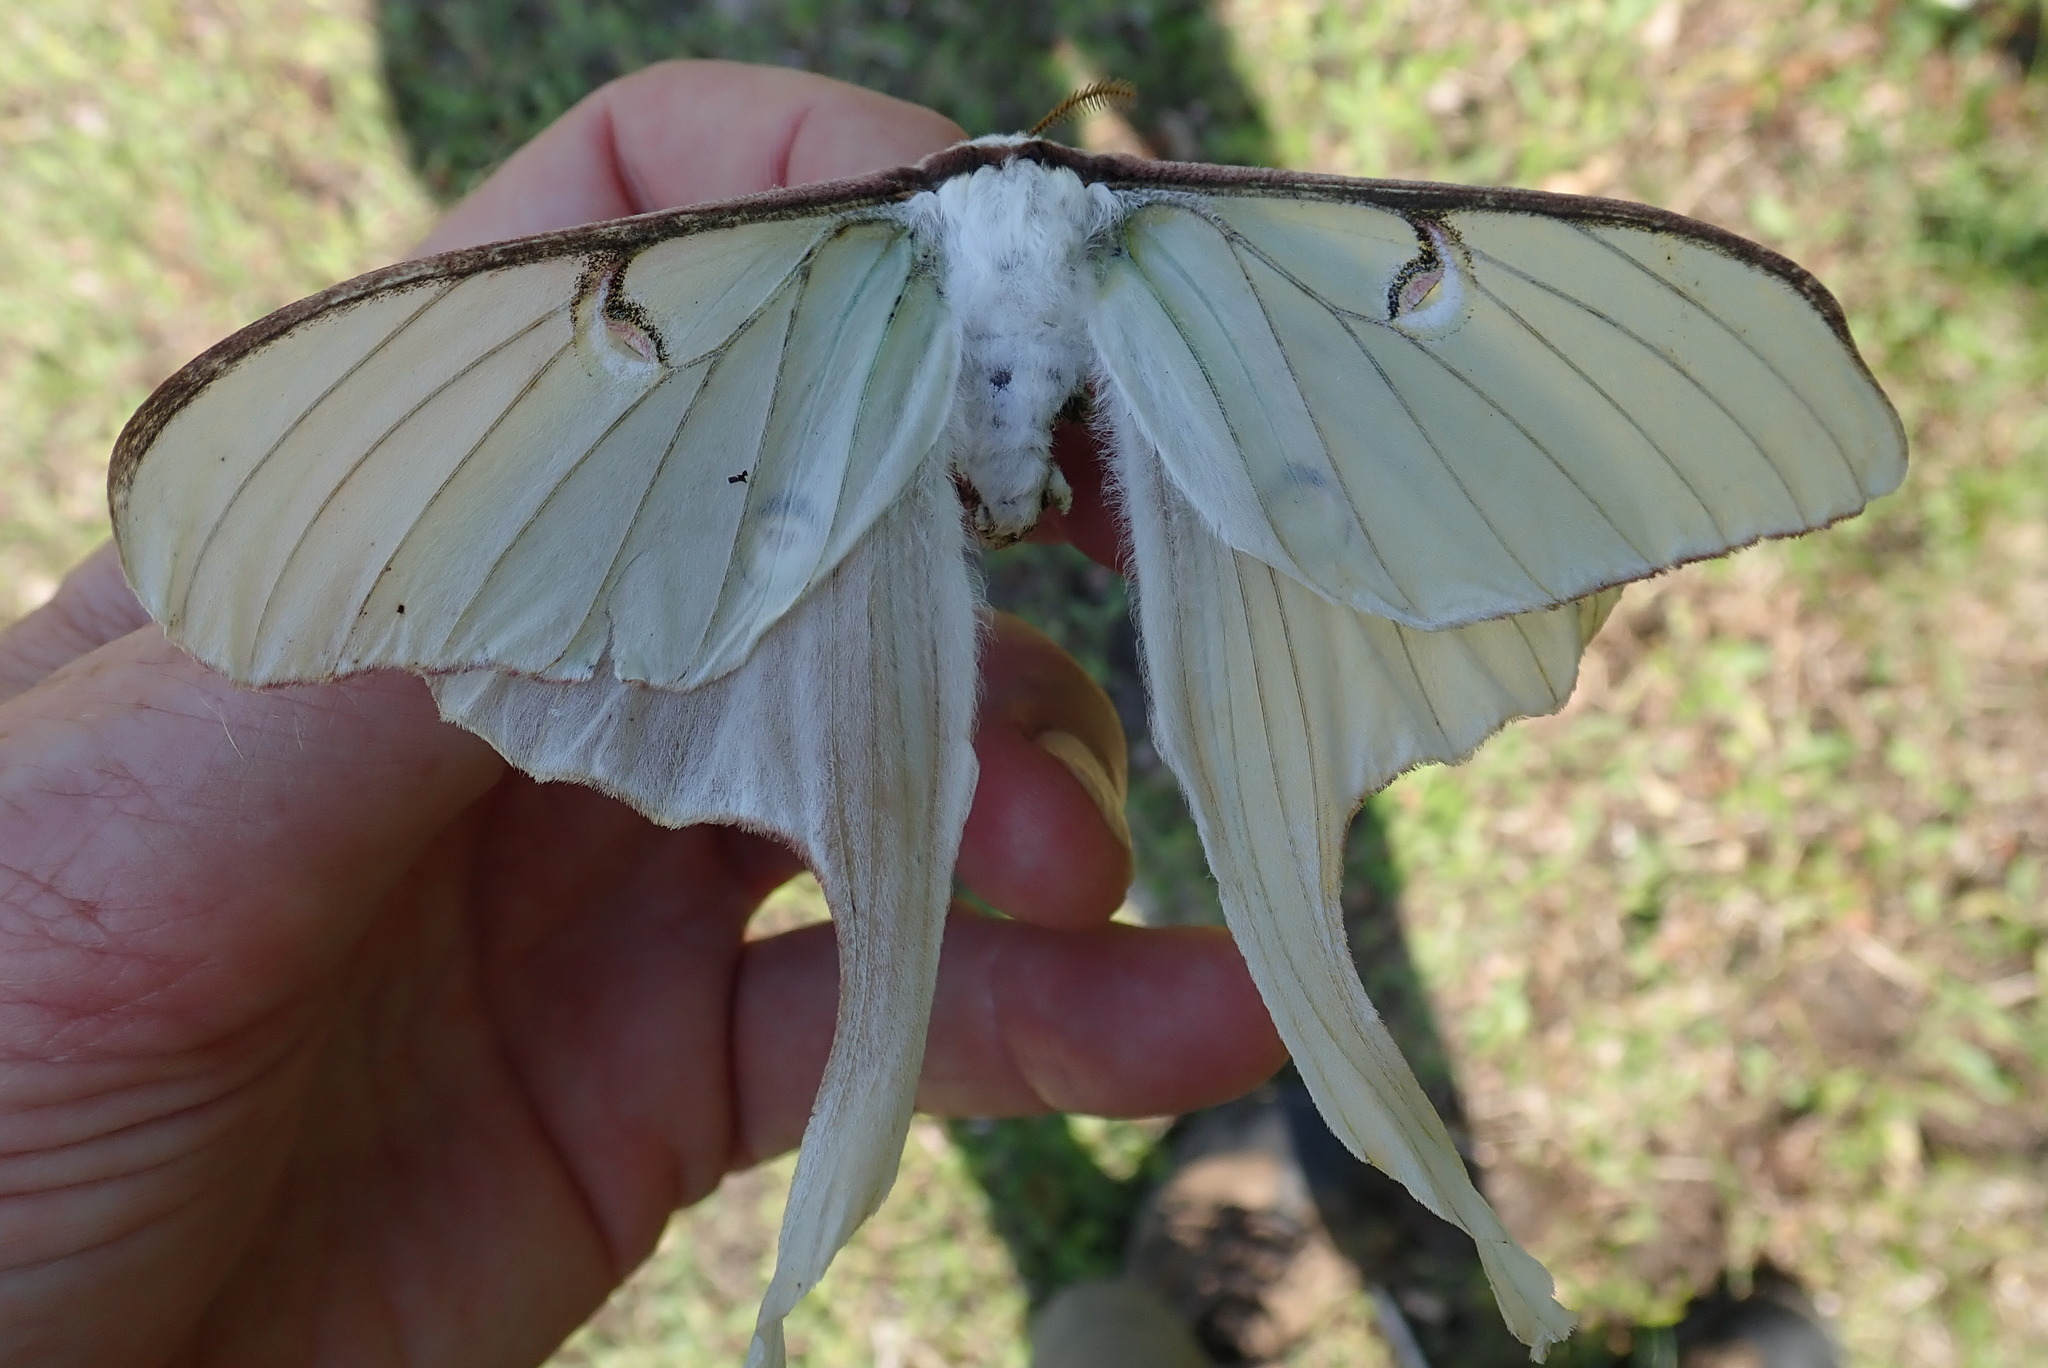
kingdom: Animalia
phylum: Arthropoda
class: Insecta
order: Lepidoptera
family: Saturniidae
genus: Actias
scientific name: Actias luna
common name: Luna moth
